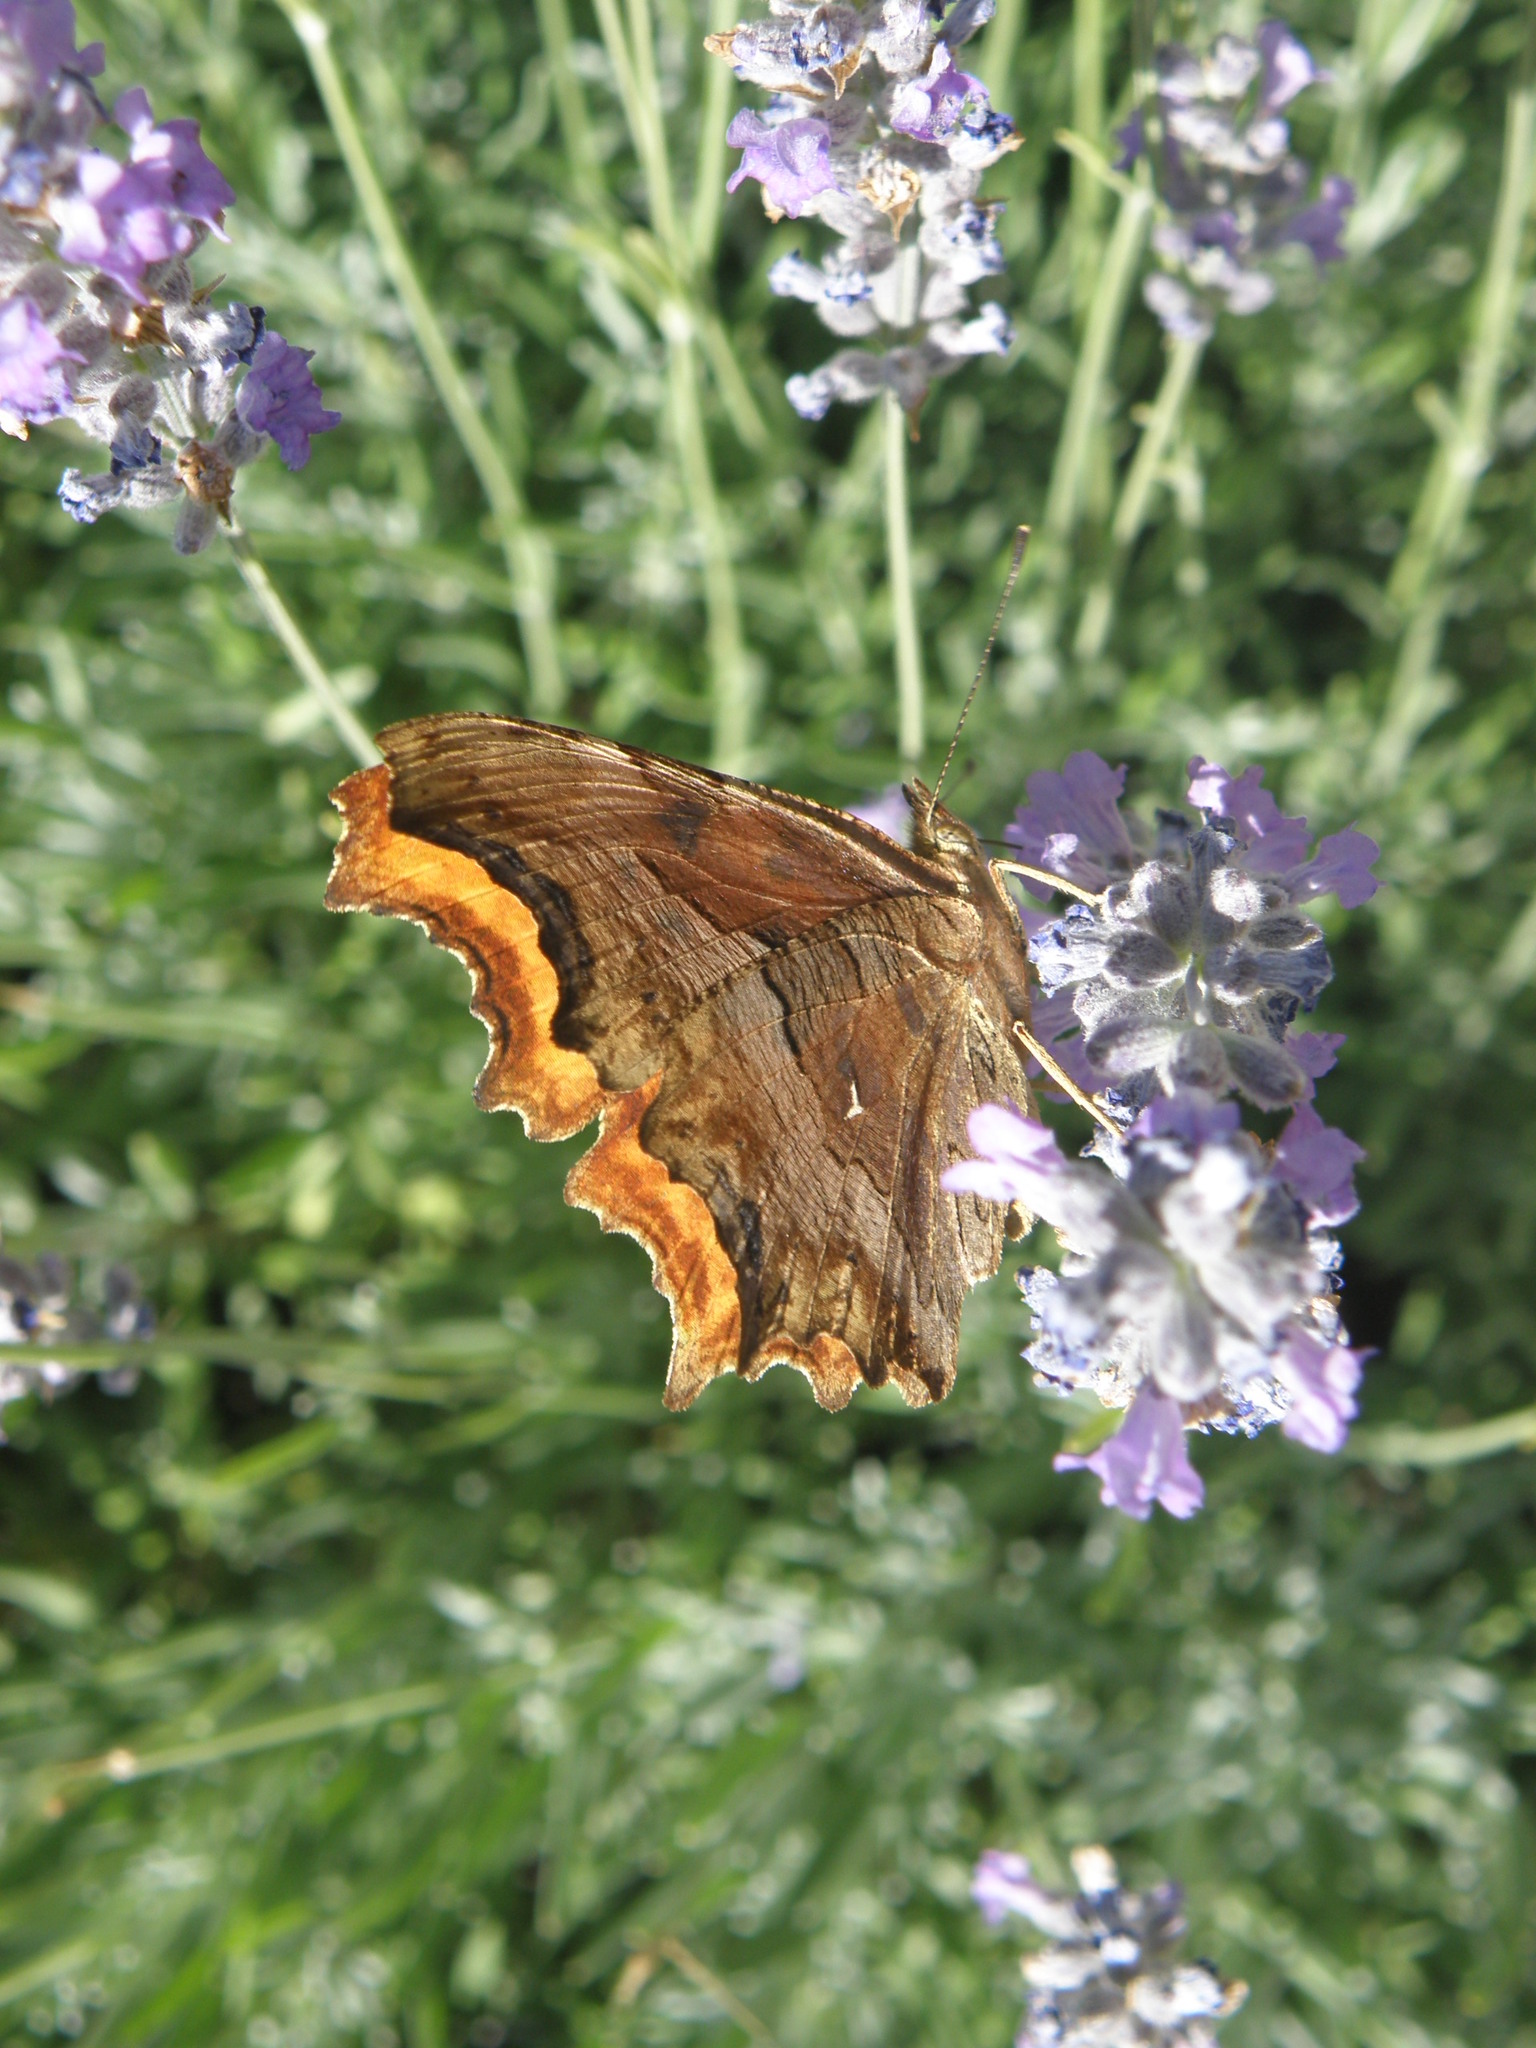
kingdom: Animalia
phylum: Arthropoda
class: Insecta
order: Lepidoptera
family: Nymphalidae
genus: Polygonia
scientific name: Polygonia egea
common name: Southern comma
